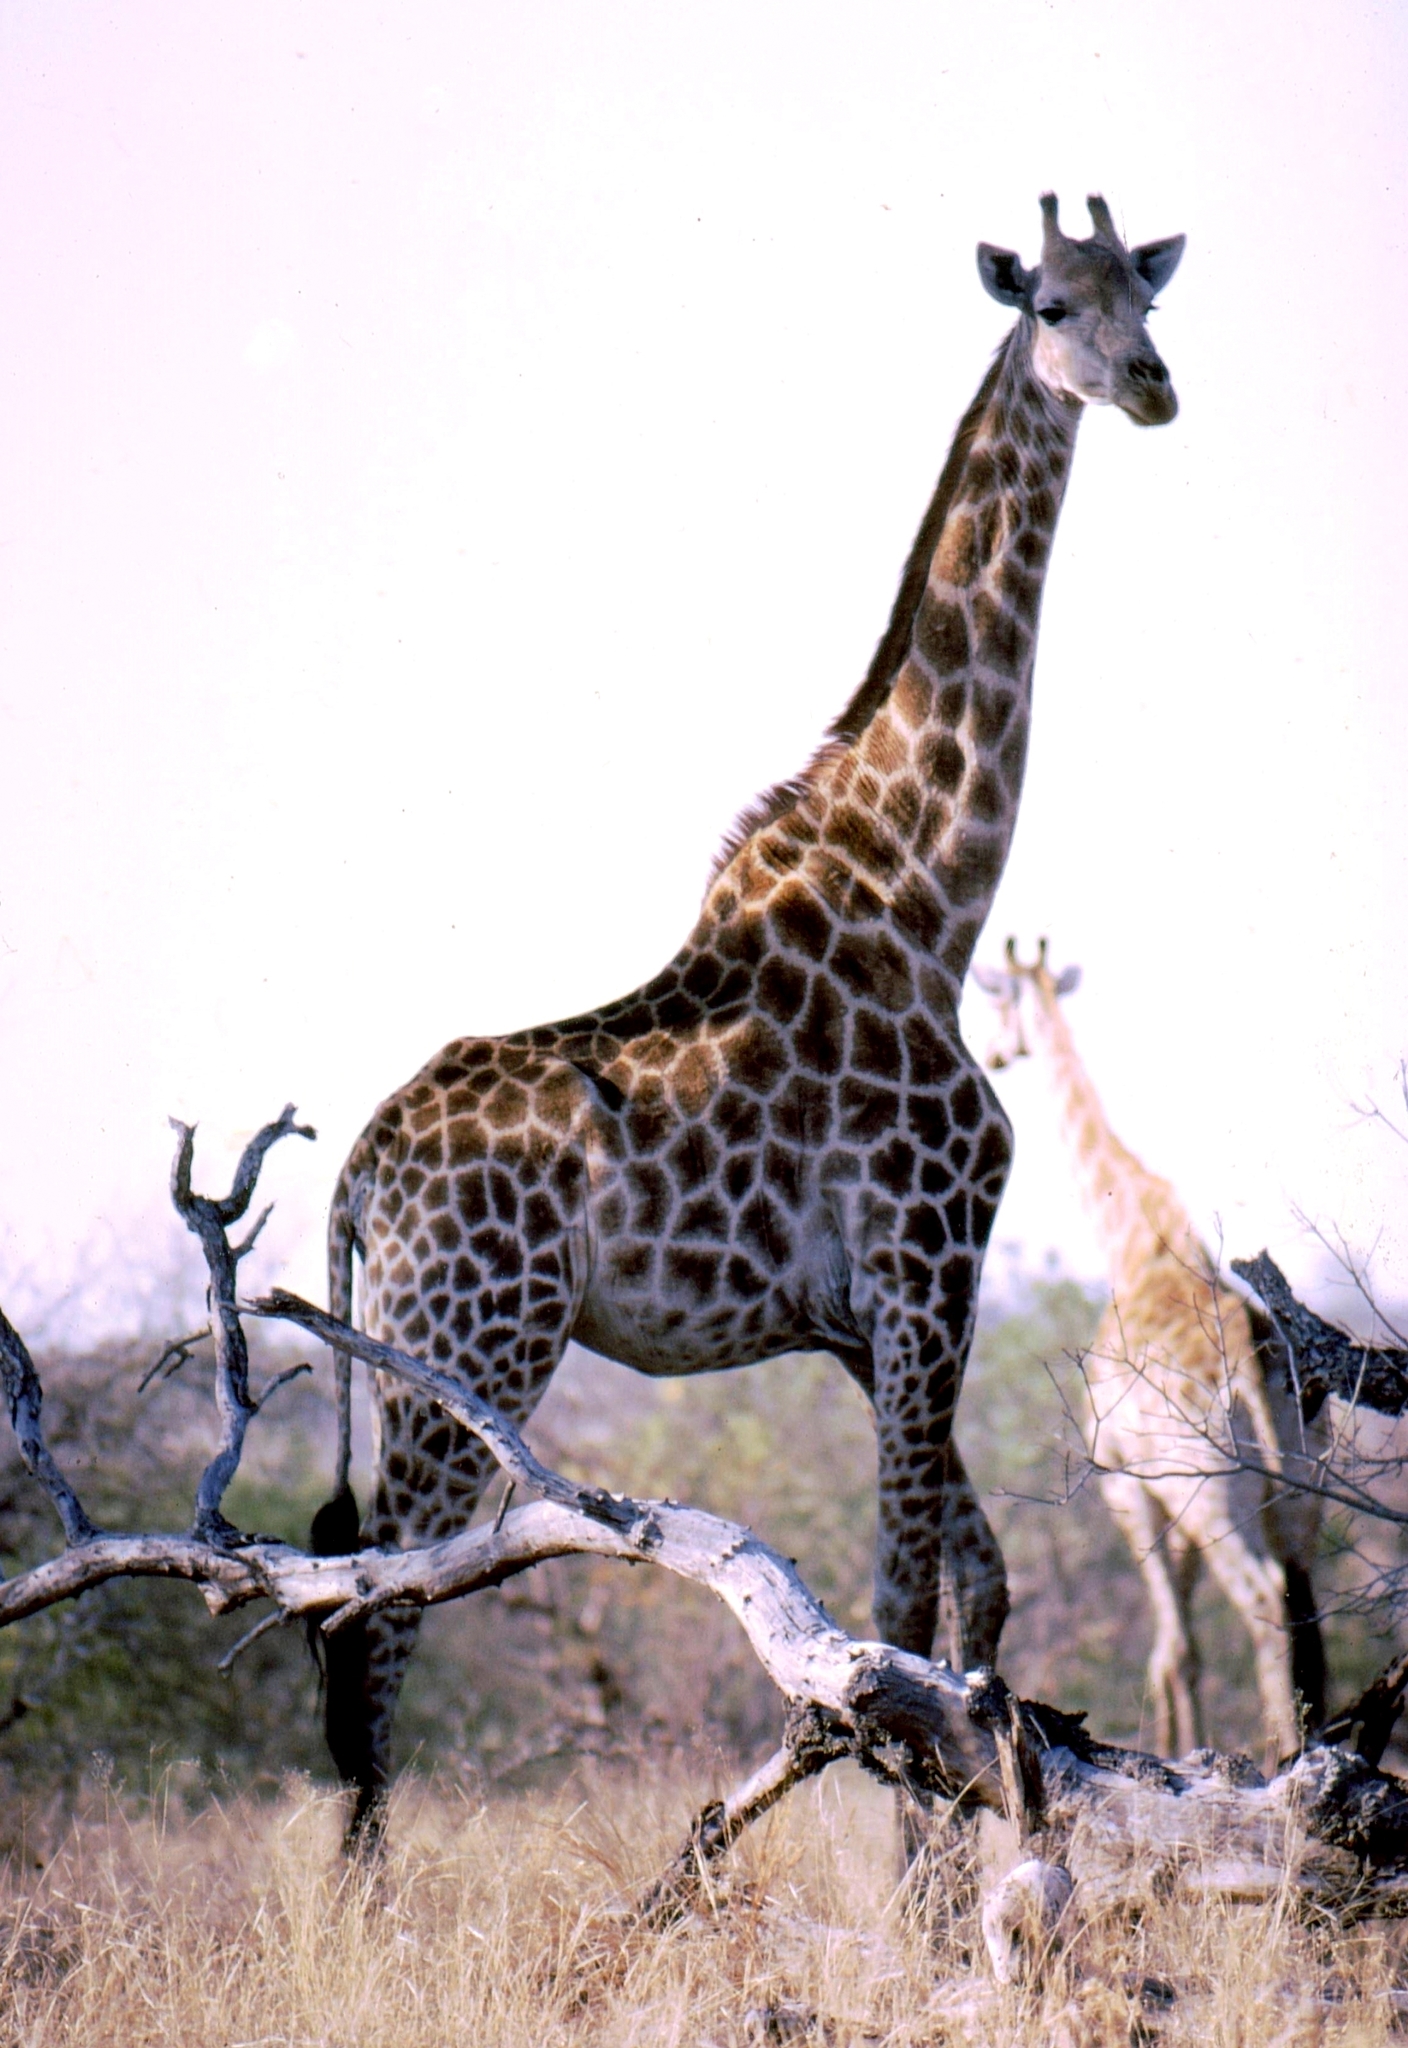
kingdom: Animalia
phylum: Chordata
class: Mammalia
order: Artiodactyla
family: Giraffidae
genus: Giraffa
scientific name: Giraffa giraffa
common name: Southern giraffe
